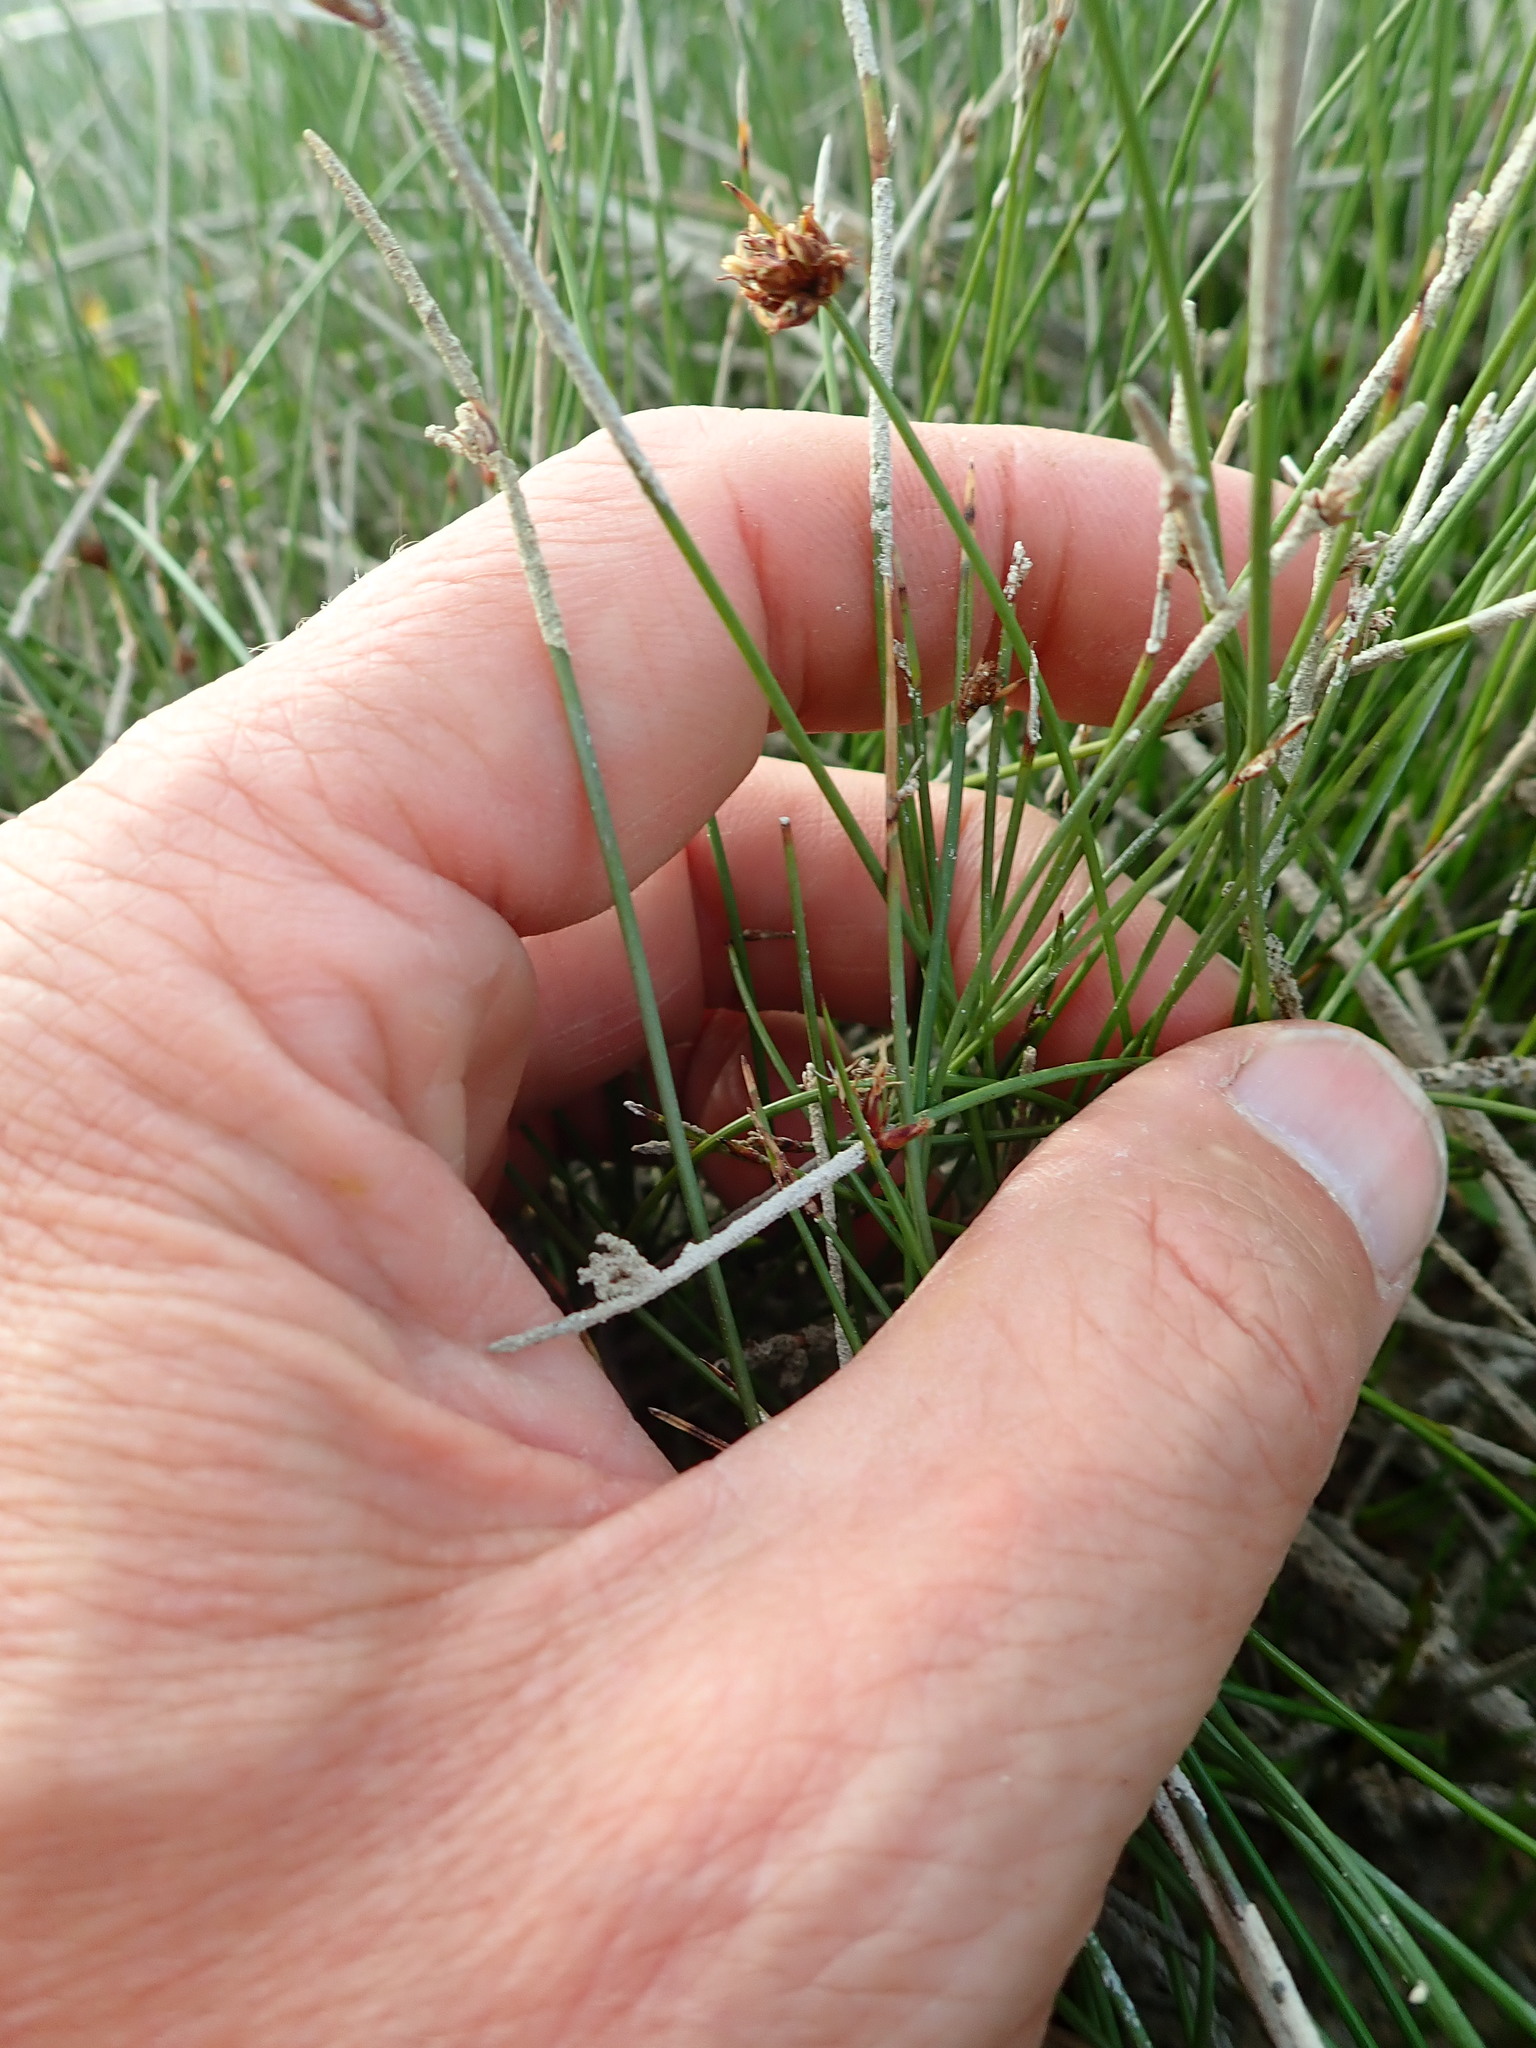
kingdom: Plantae
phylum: Tracheophyta
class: Liliopsida
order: Poales
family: Cyperaceae
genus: Schoenus
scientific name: Schoenus nitens
